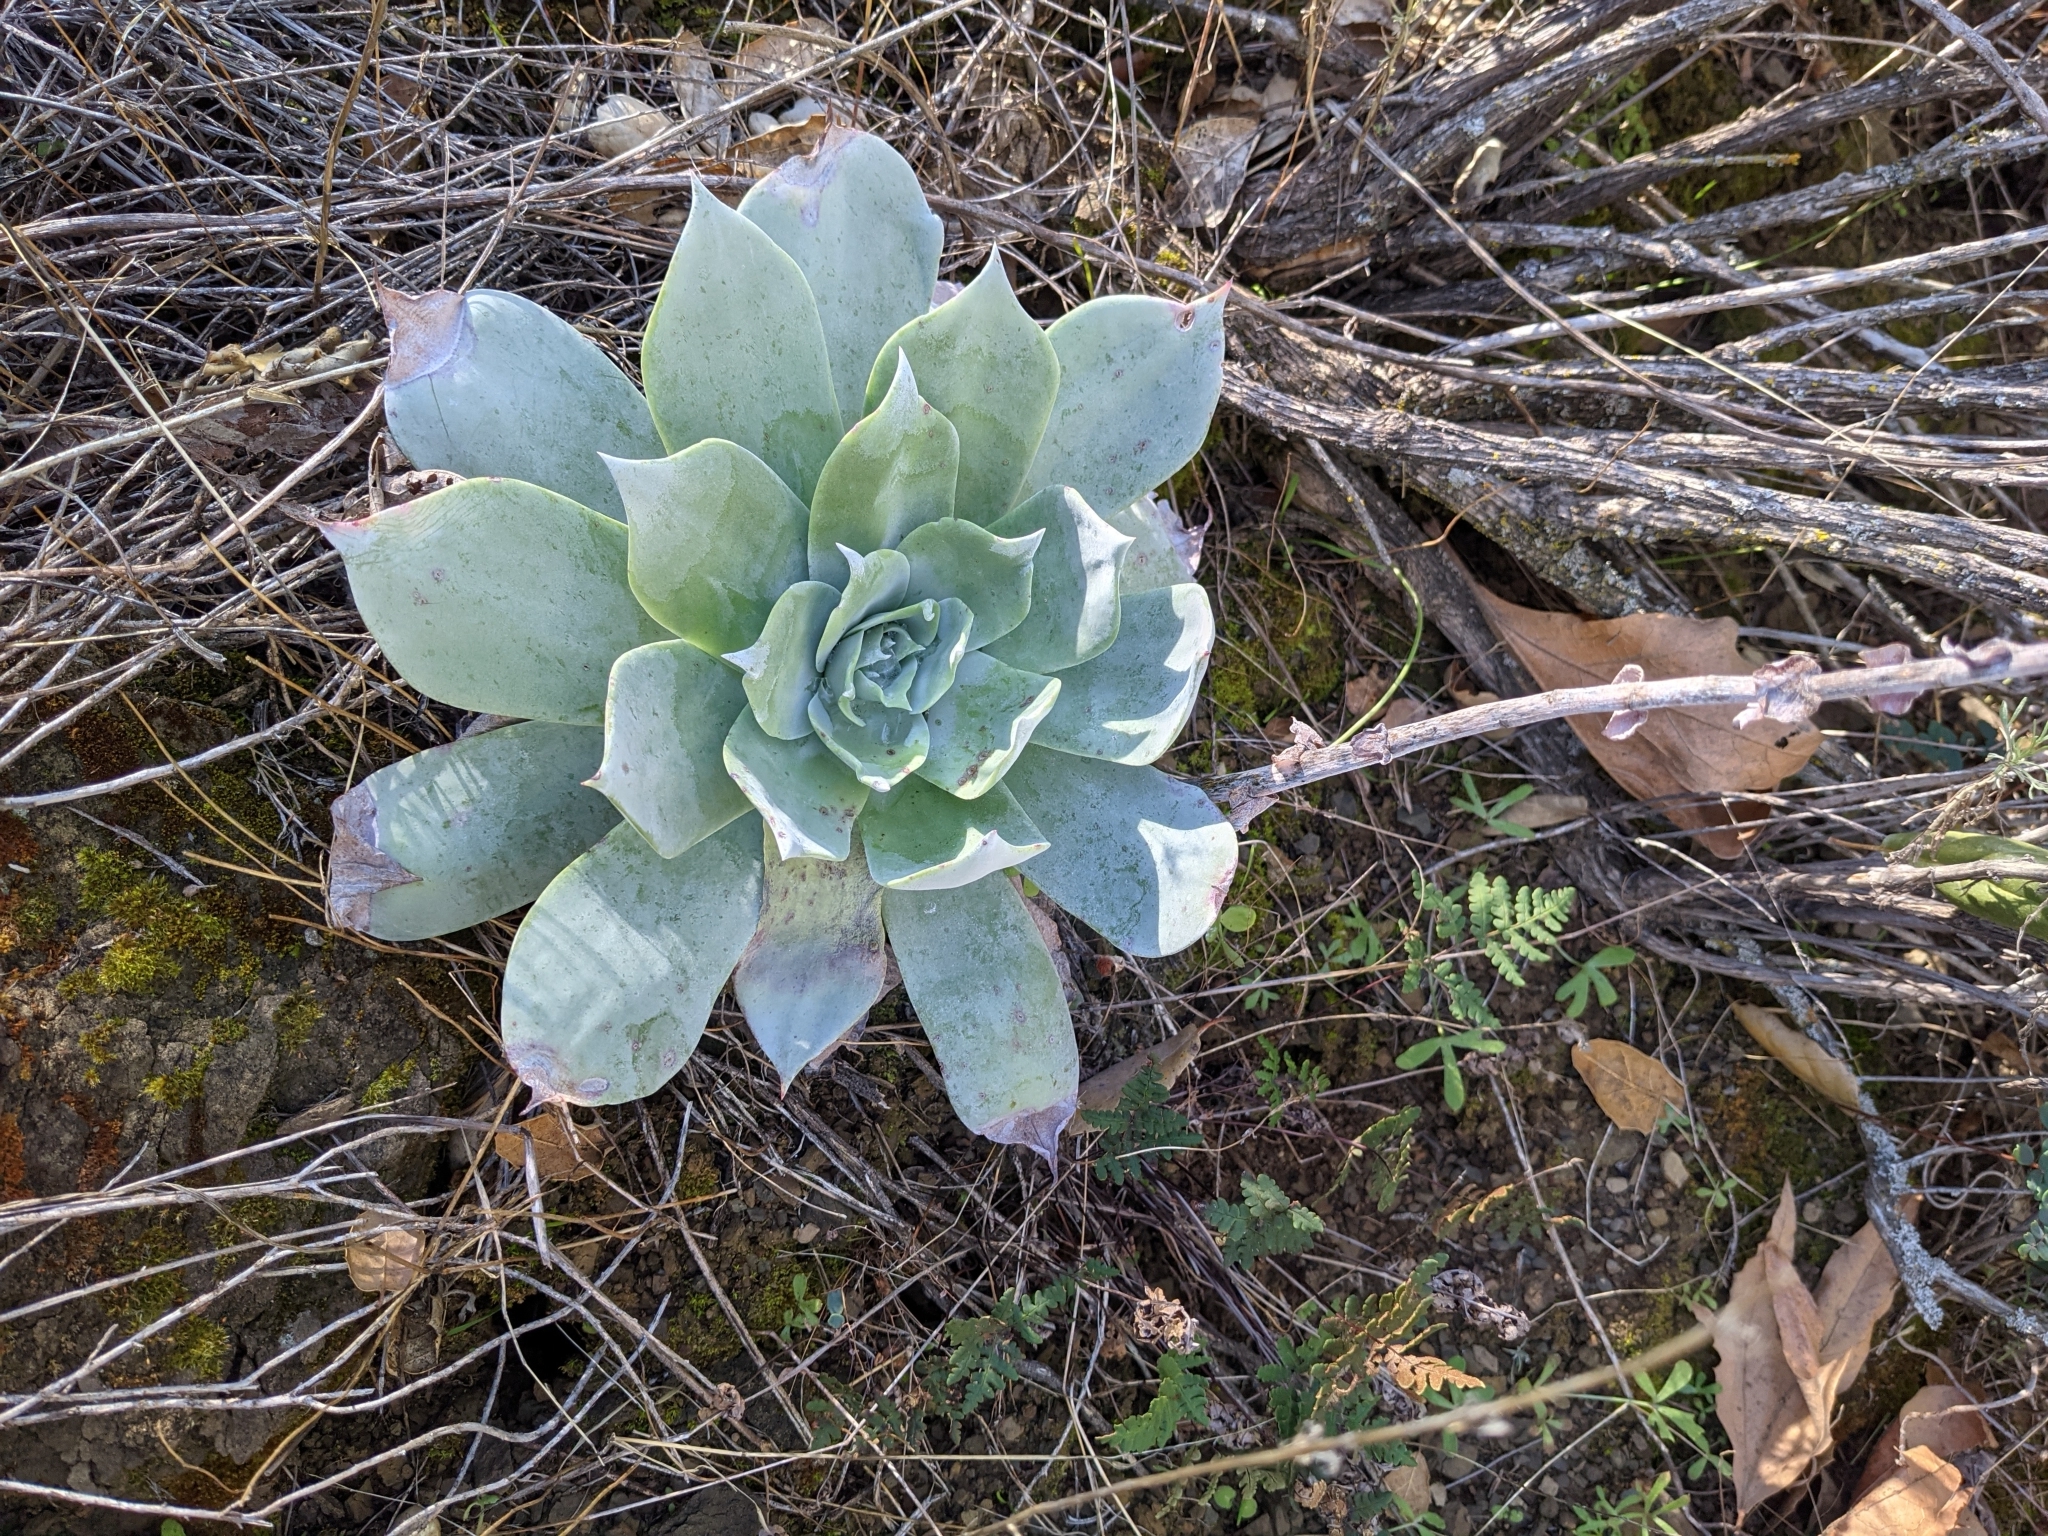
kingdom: Plantae
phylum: Tracheophyta
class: Magnoliopsida
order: Saxifragales
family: Crassulaceae
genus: Dudleya
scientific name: Dudleya pulverulenta
